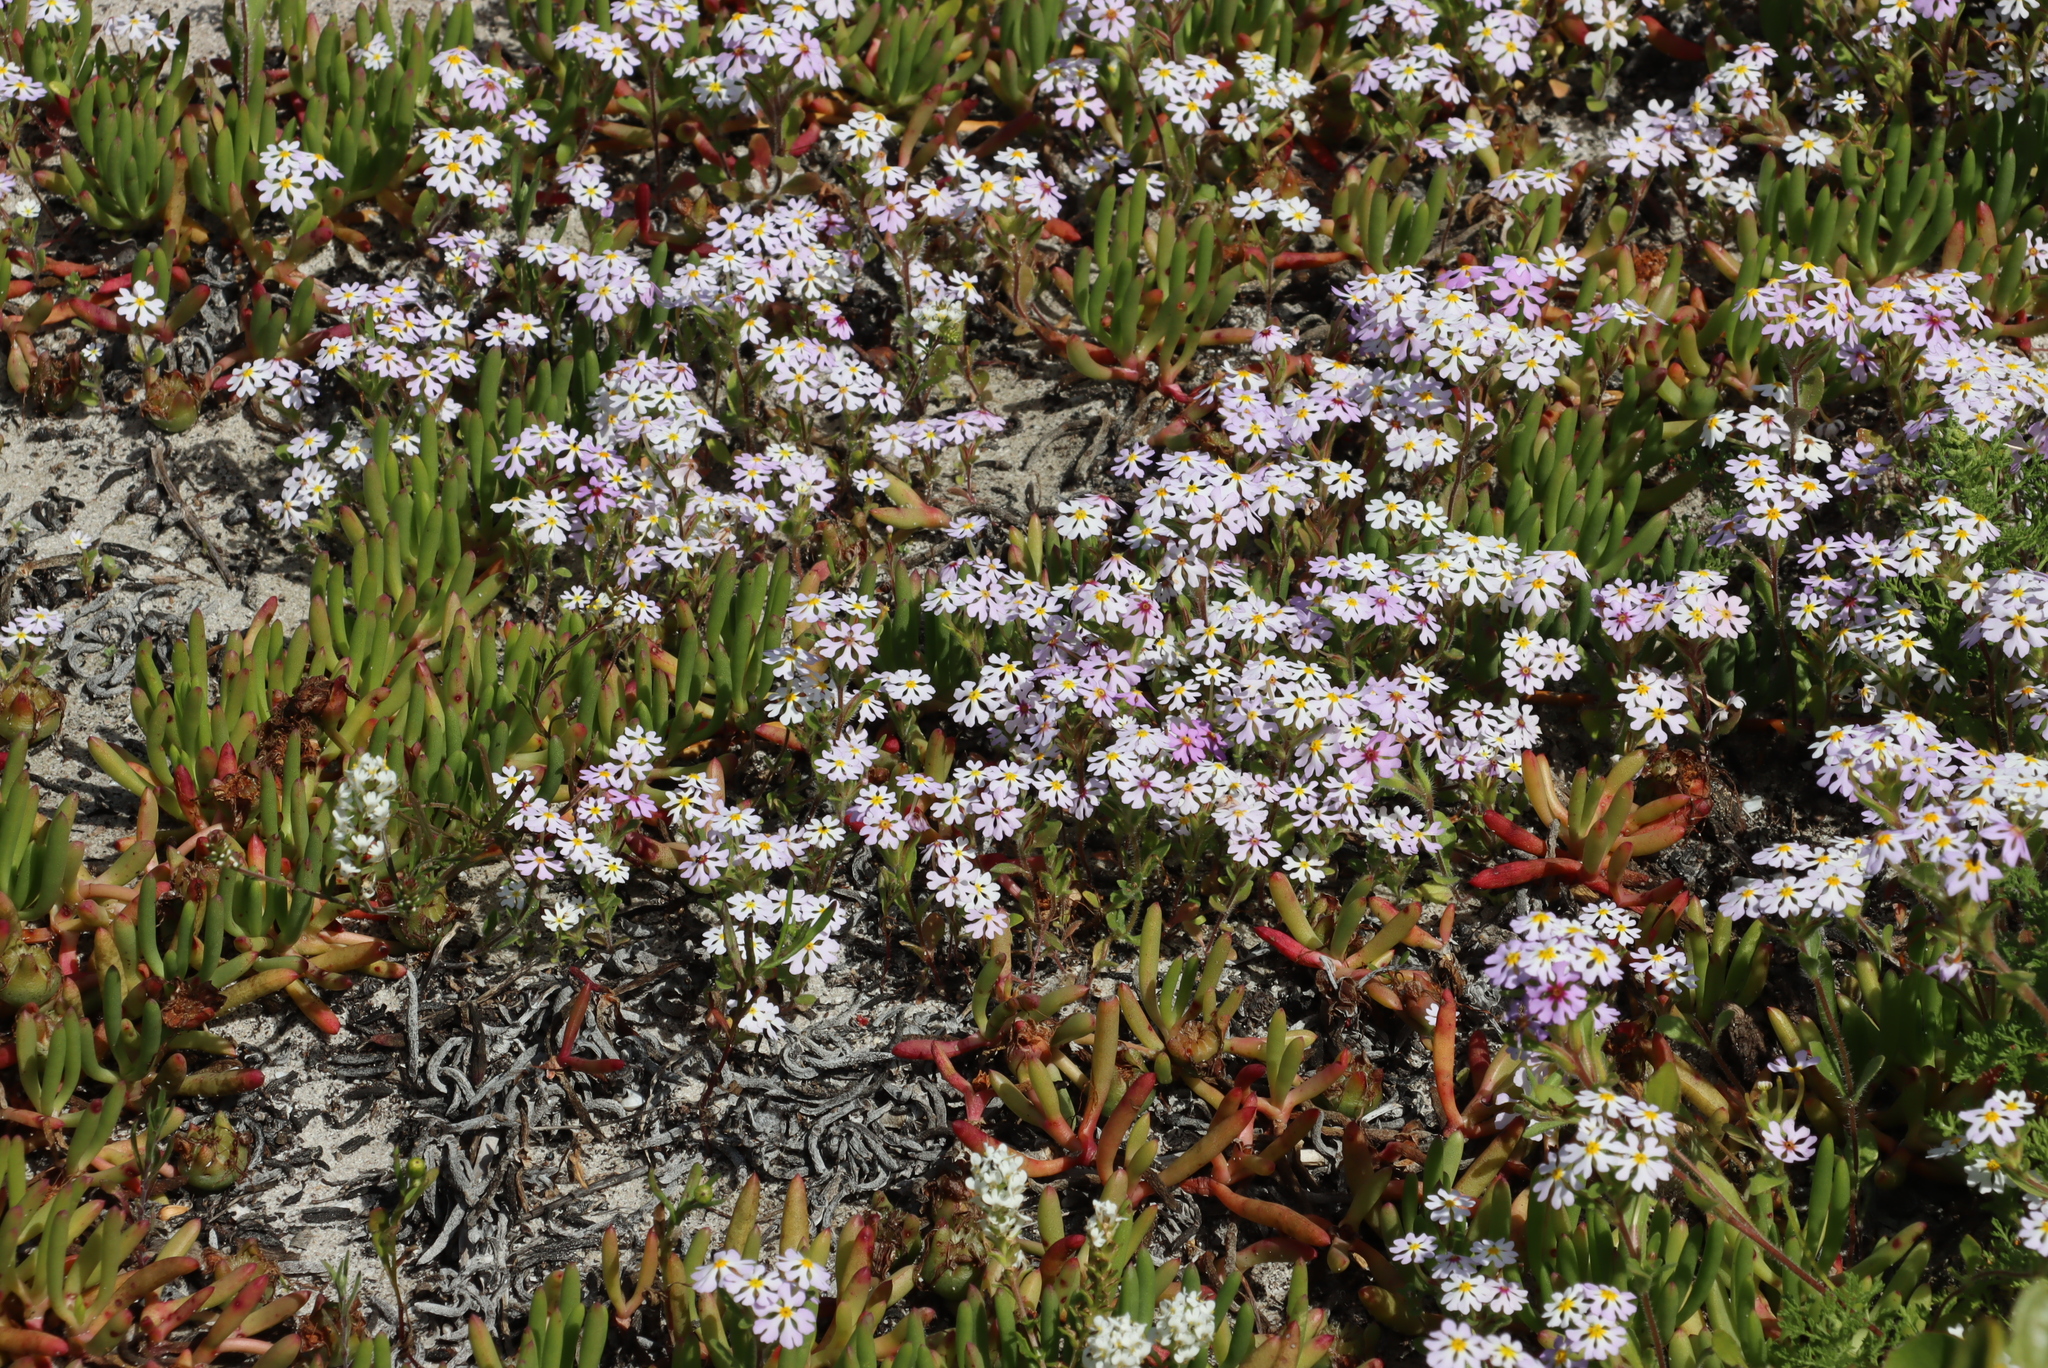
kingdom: Plantae
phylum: Tracheophyta
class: Magnoliopsida
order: Lamiales
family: Scrophulariaceae
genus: Zaluzianskya
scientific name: Zaluzianskya villosa
